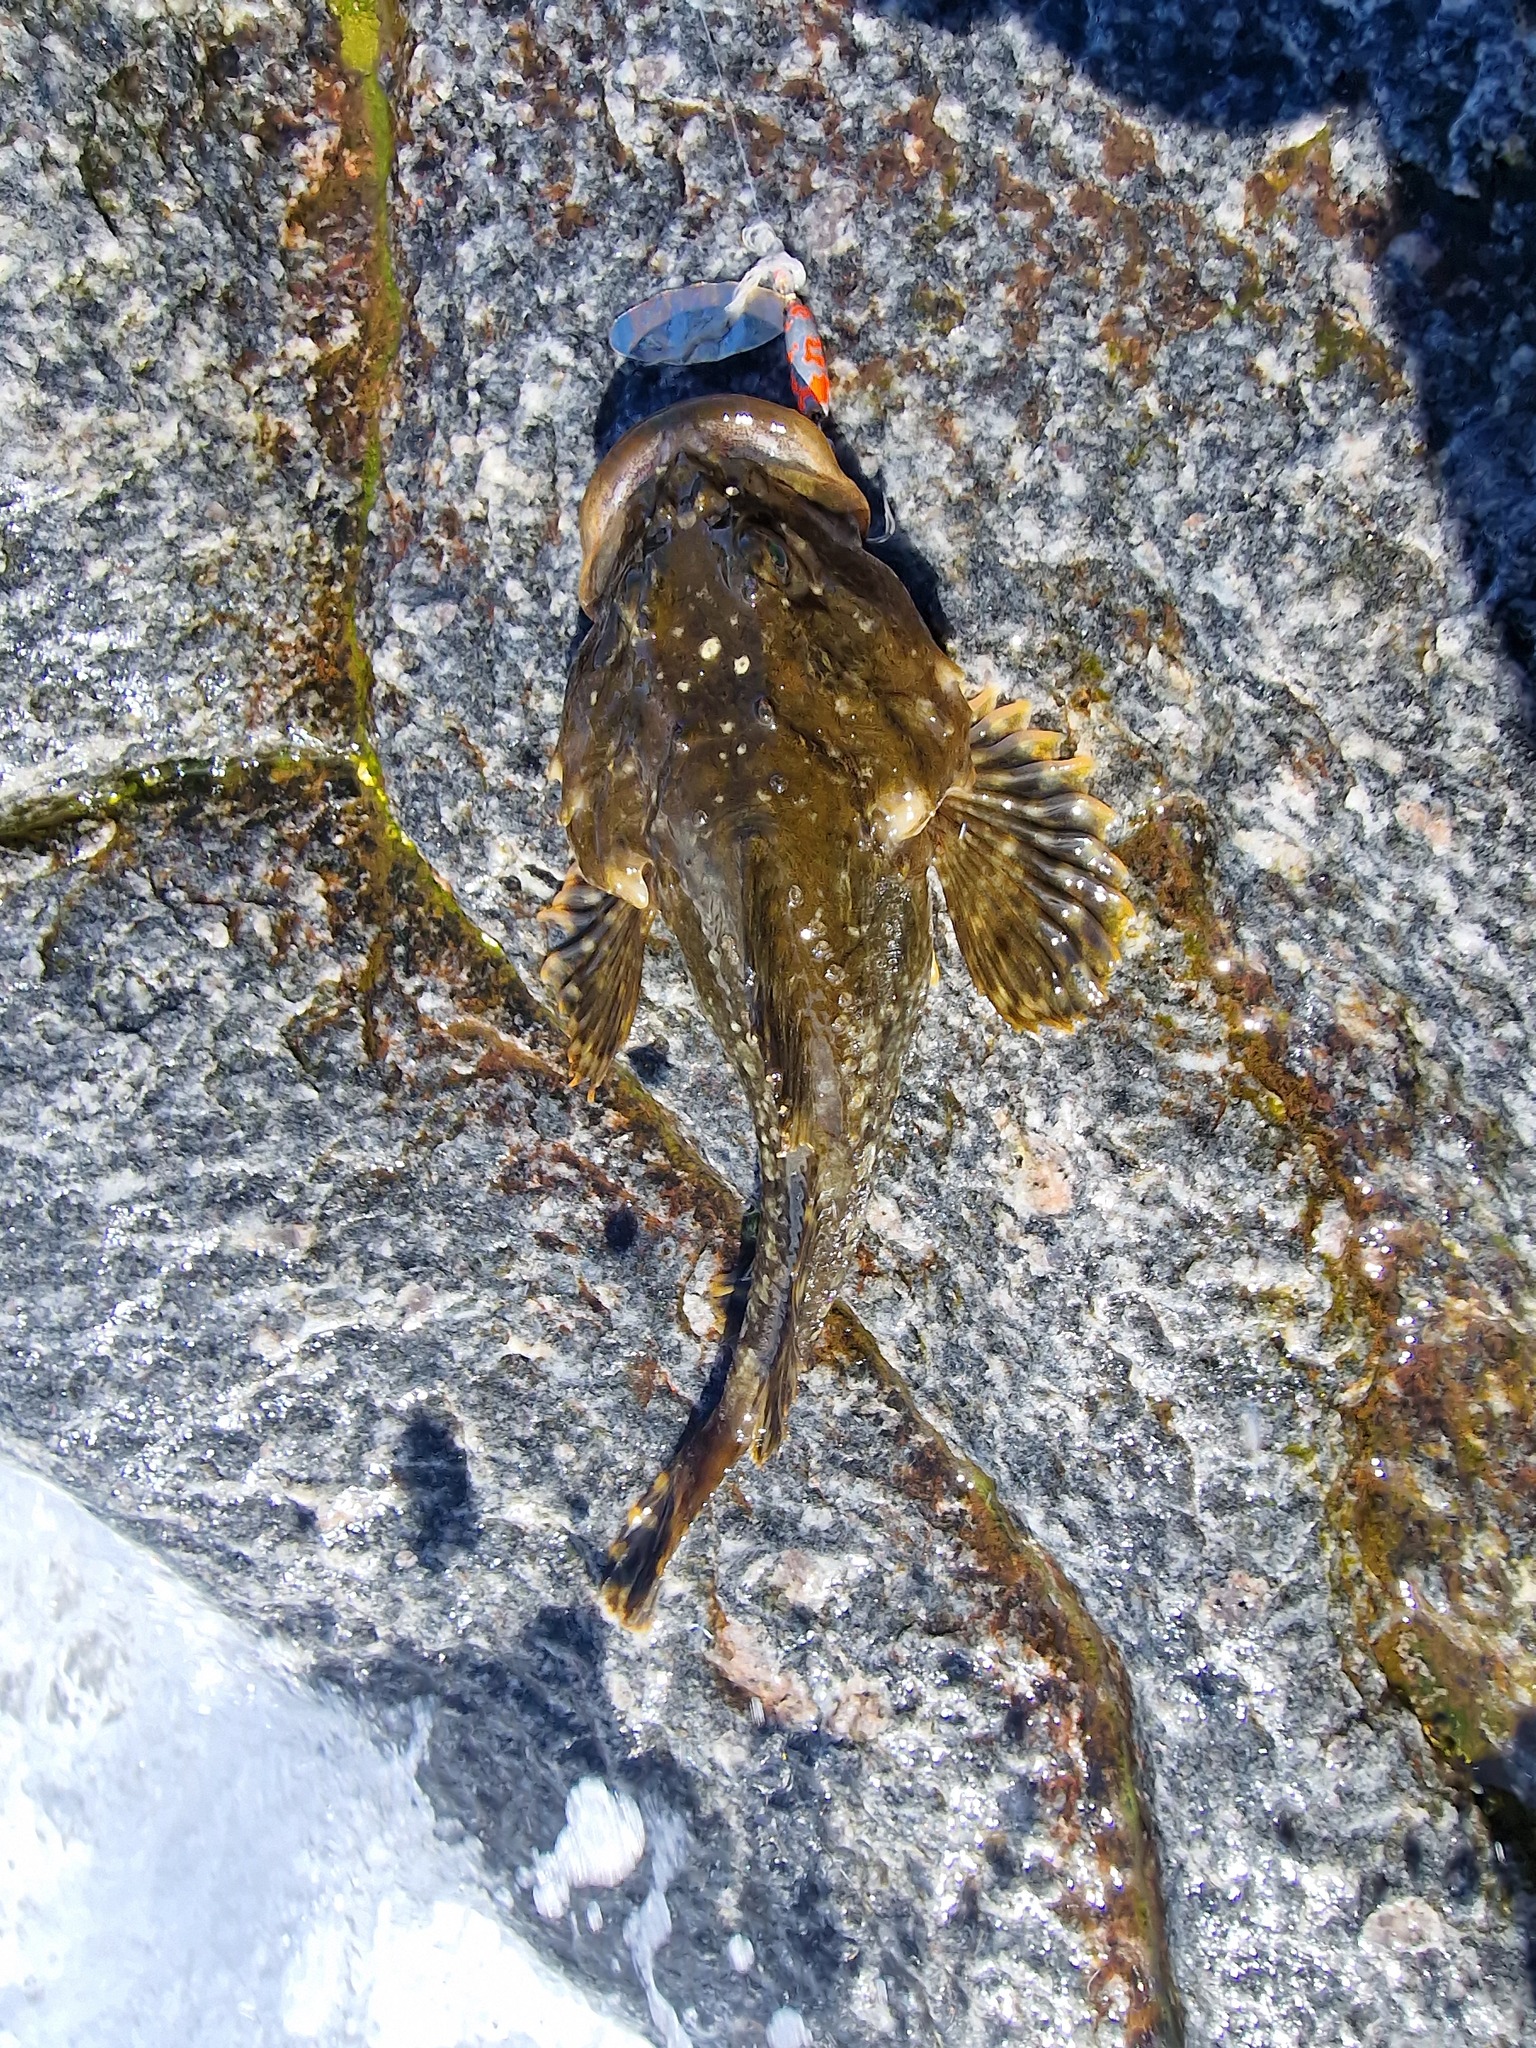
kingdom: Animalia
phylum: Chordata
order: Scorpaeniformes
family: Cottidae
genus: Myoxocephalus
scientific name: Myoxocephalus scorpius
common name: Shorthorn sculpin
